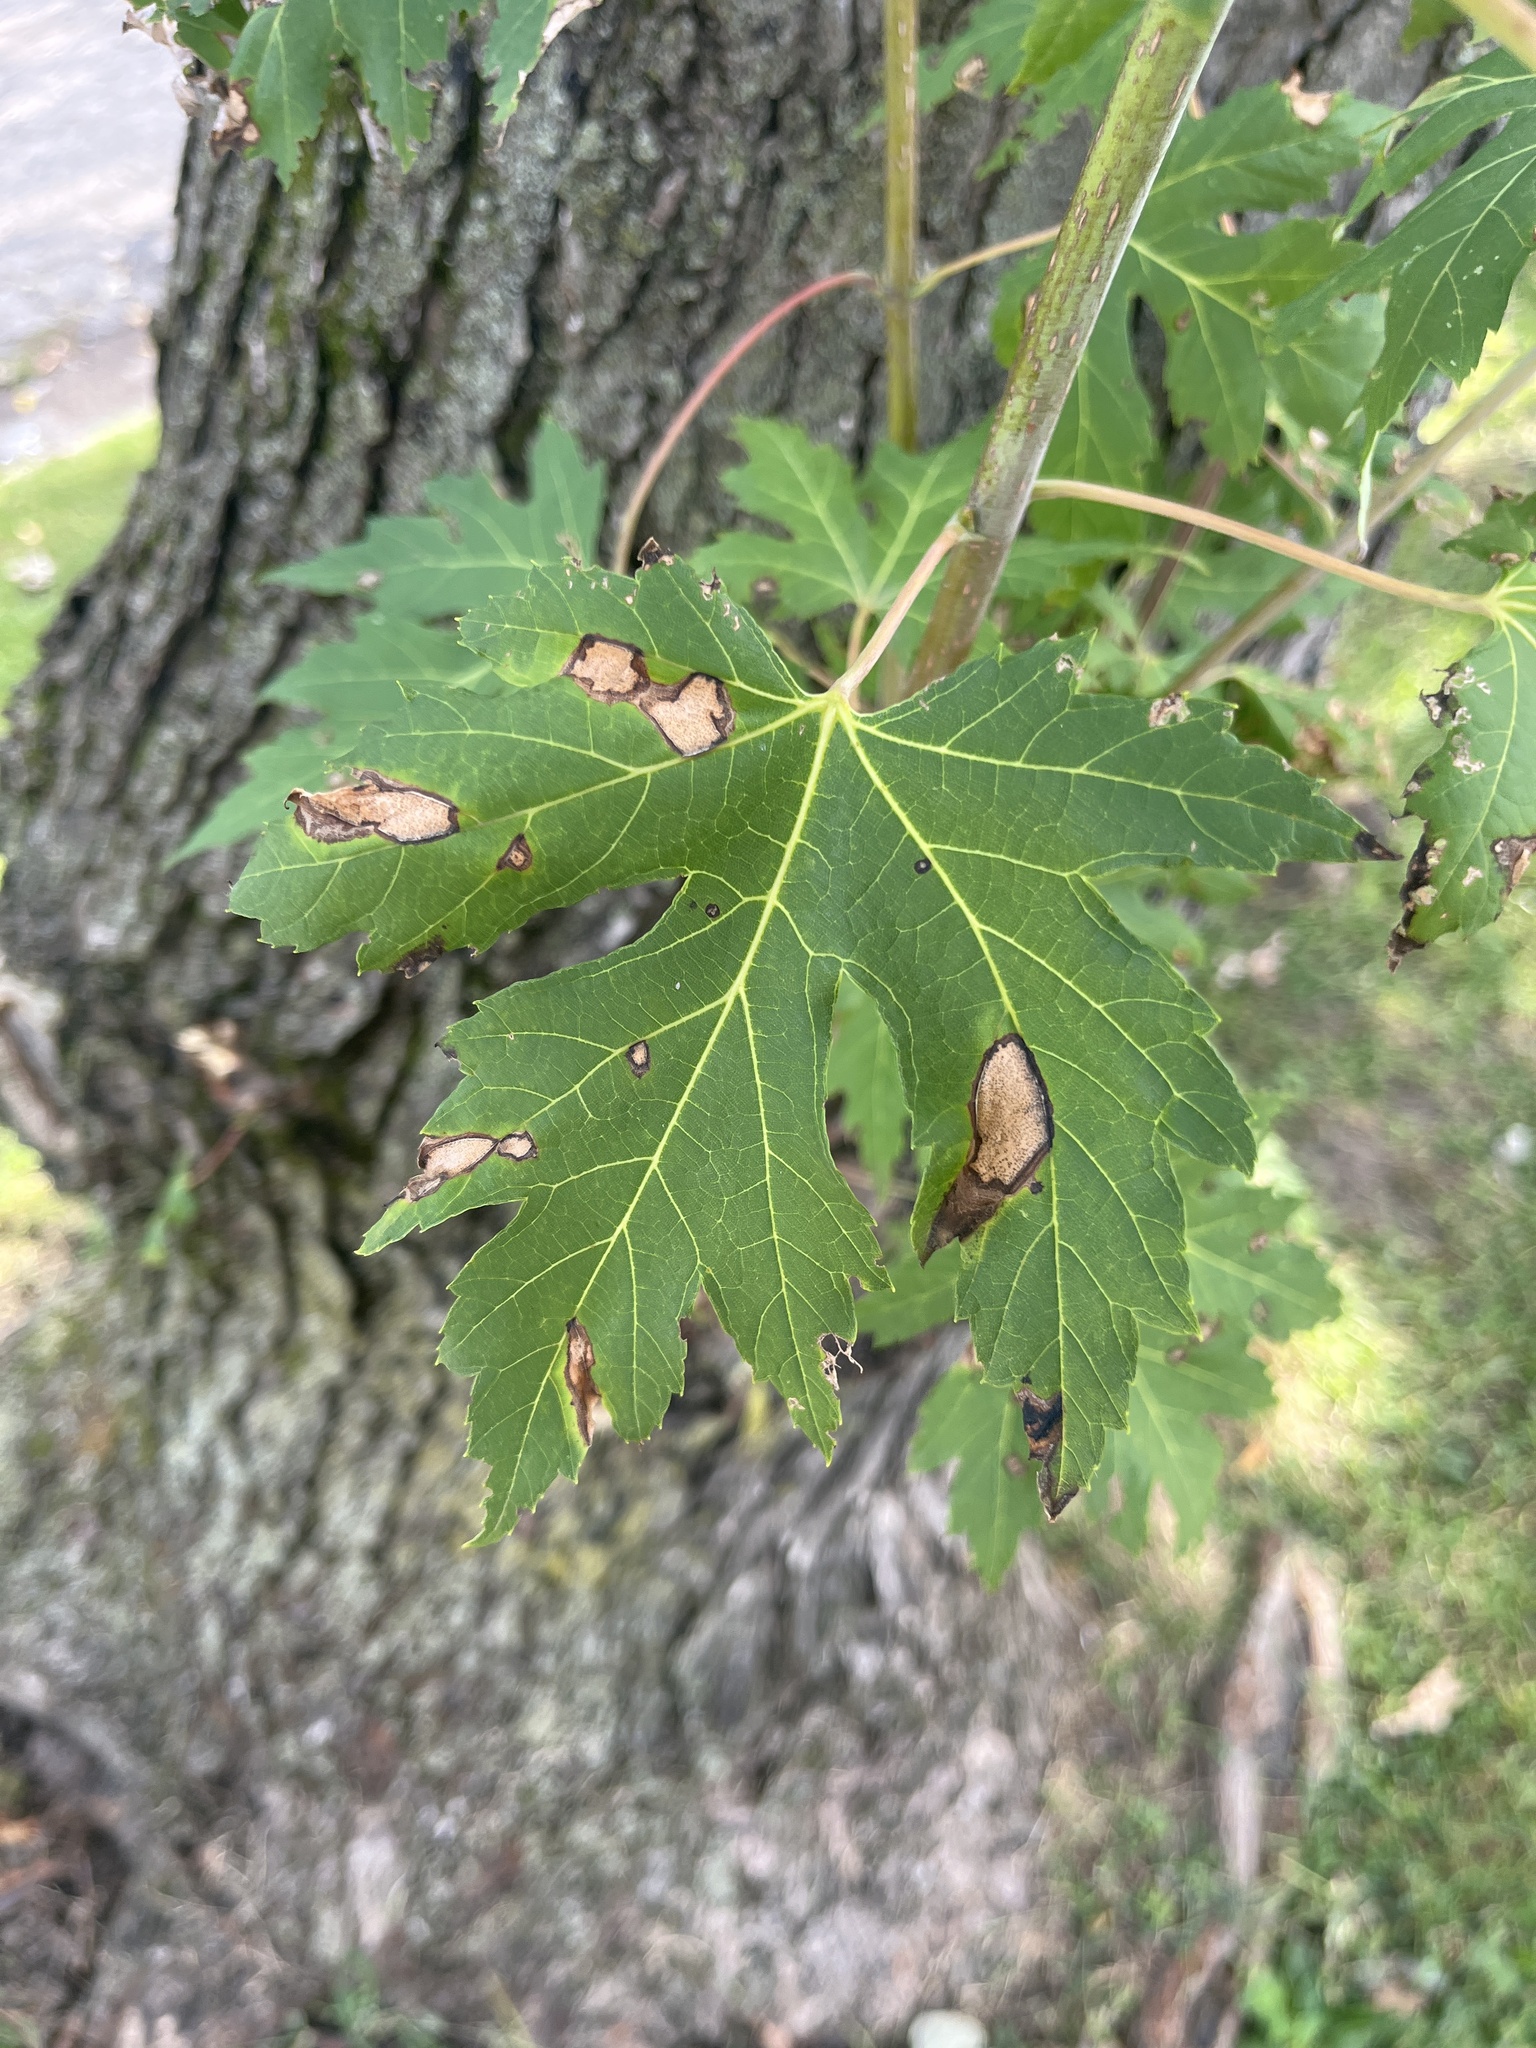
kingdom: Plantae
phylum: Tracheophyta
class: Magnoliopsida
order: Sapindales
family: Sapindaceae
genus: Acer
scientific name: Acer saccharinum
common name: Silver maple
